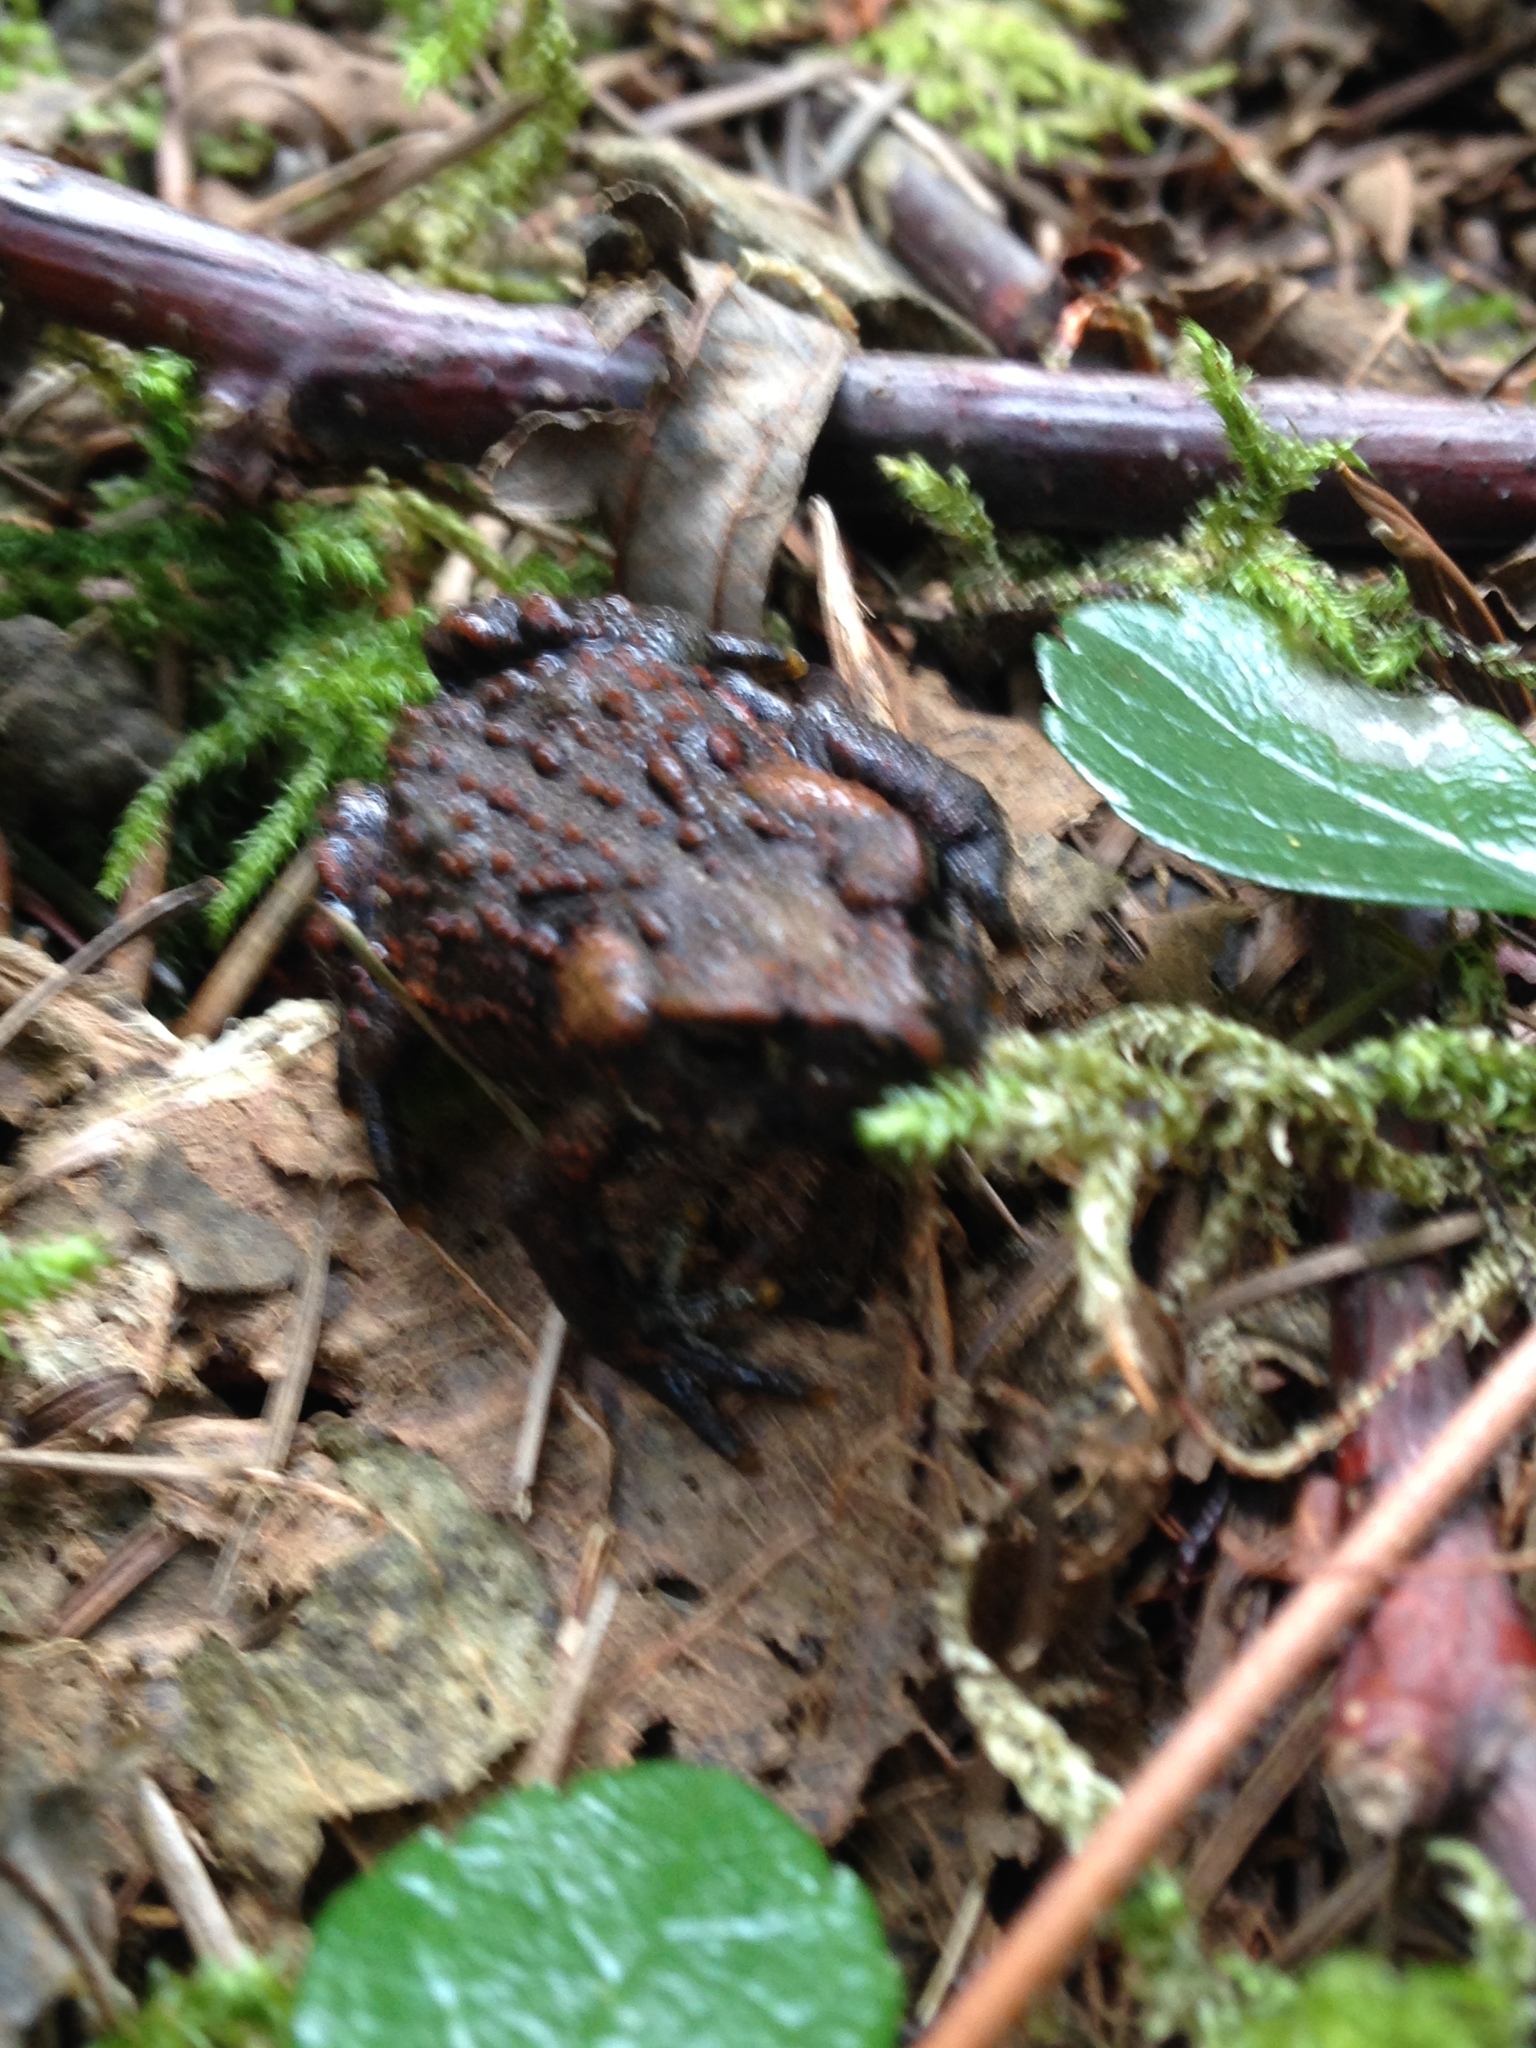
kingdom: Animalia
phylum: Chordata
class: Amphibia
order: Anura
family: Bufonidae
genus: Anaxyrus
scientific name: Anaxyrus boreas
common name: Western toad
